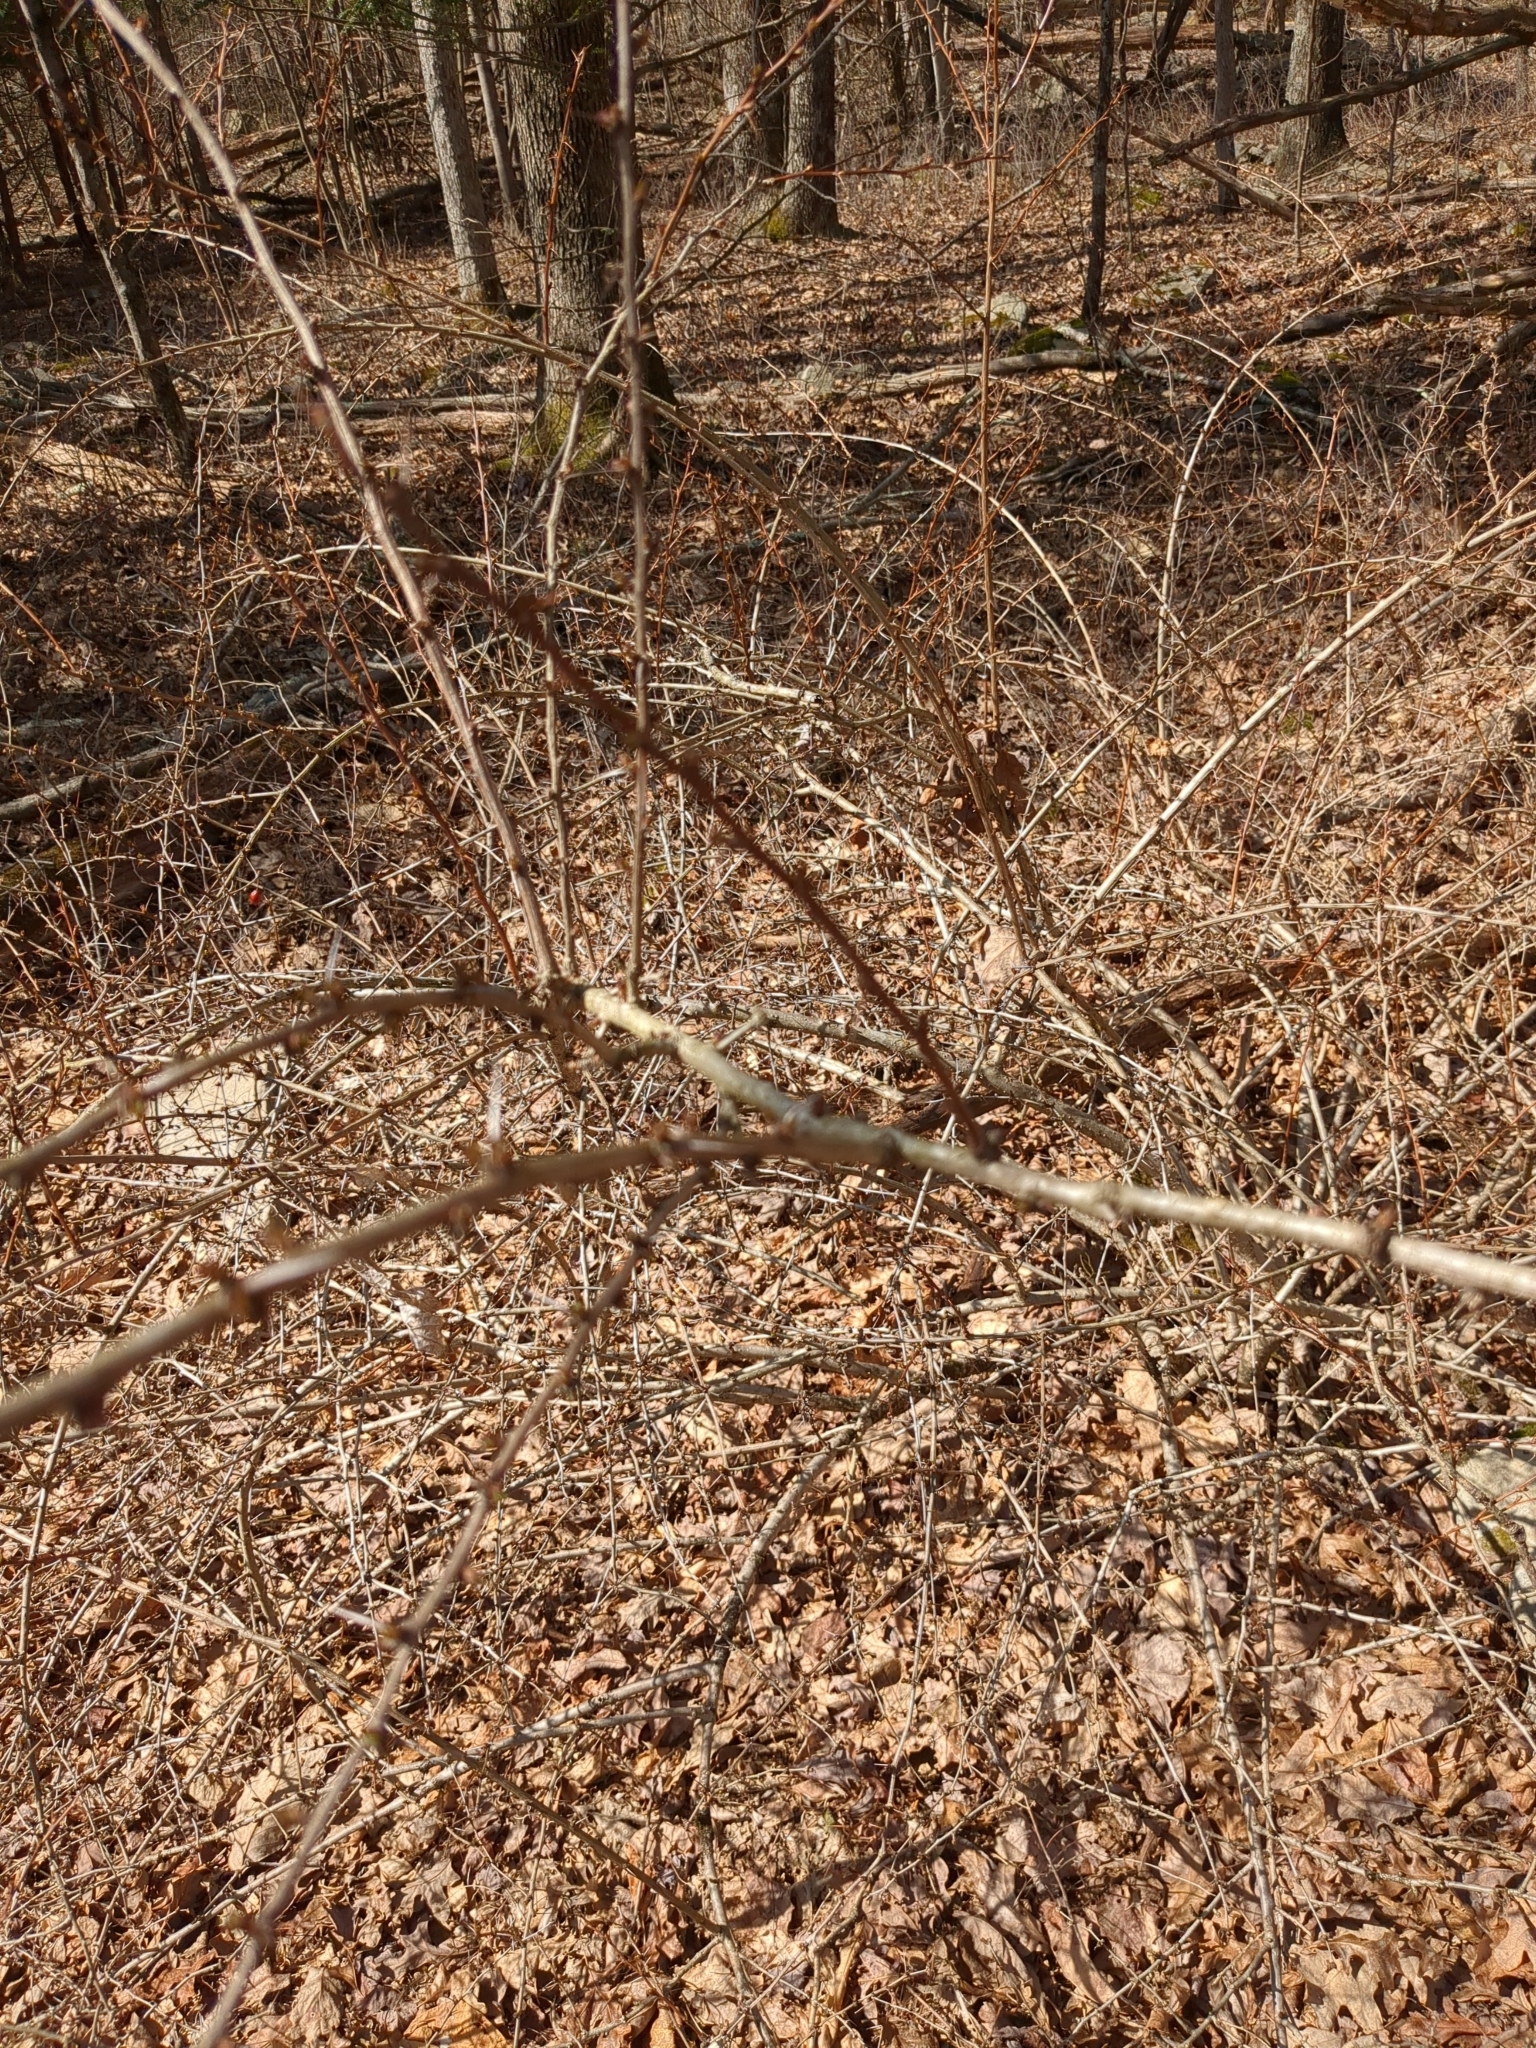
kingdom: Plantae
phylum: Tracheophyta
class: Magnoliopsida
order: Ranunculales
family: Berberidaceae
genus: Berberis
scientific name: Berberis thunbergii
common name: Japanese barberry
